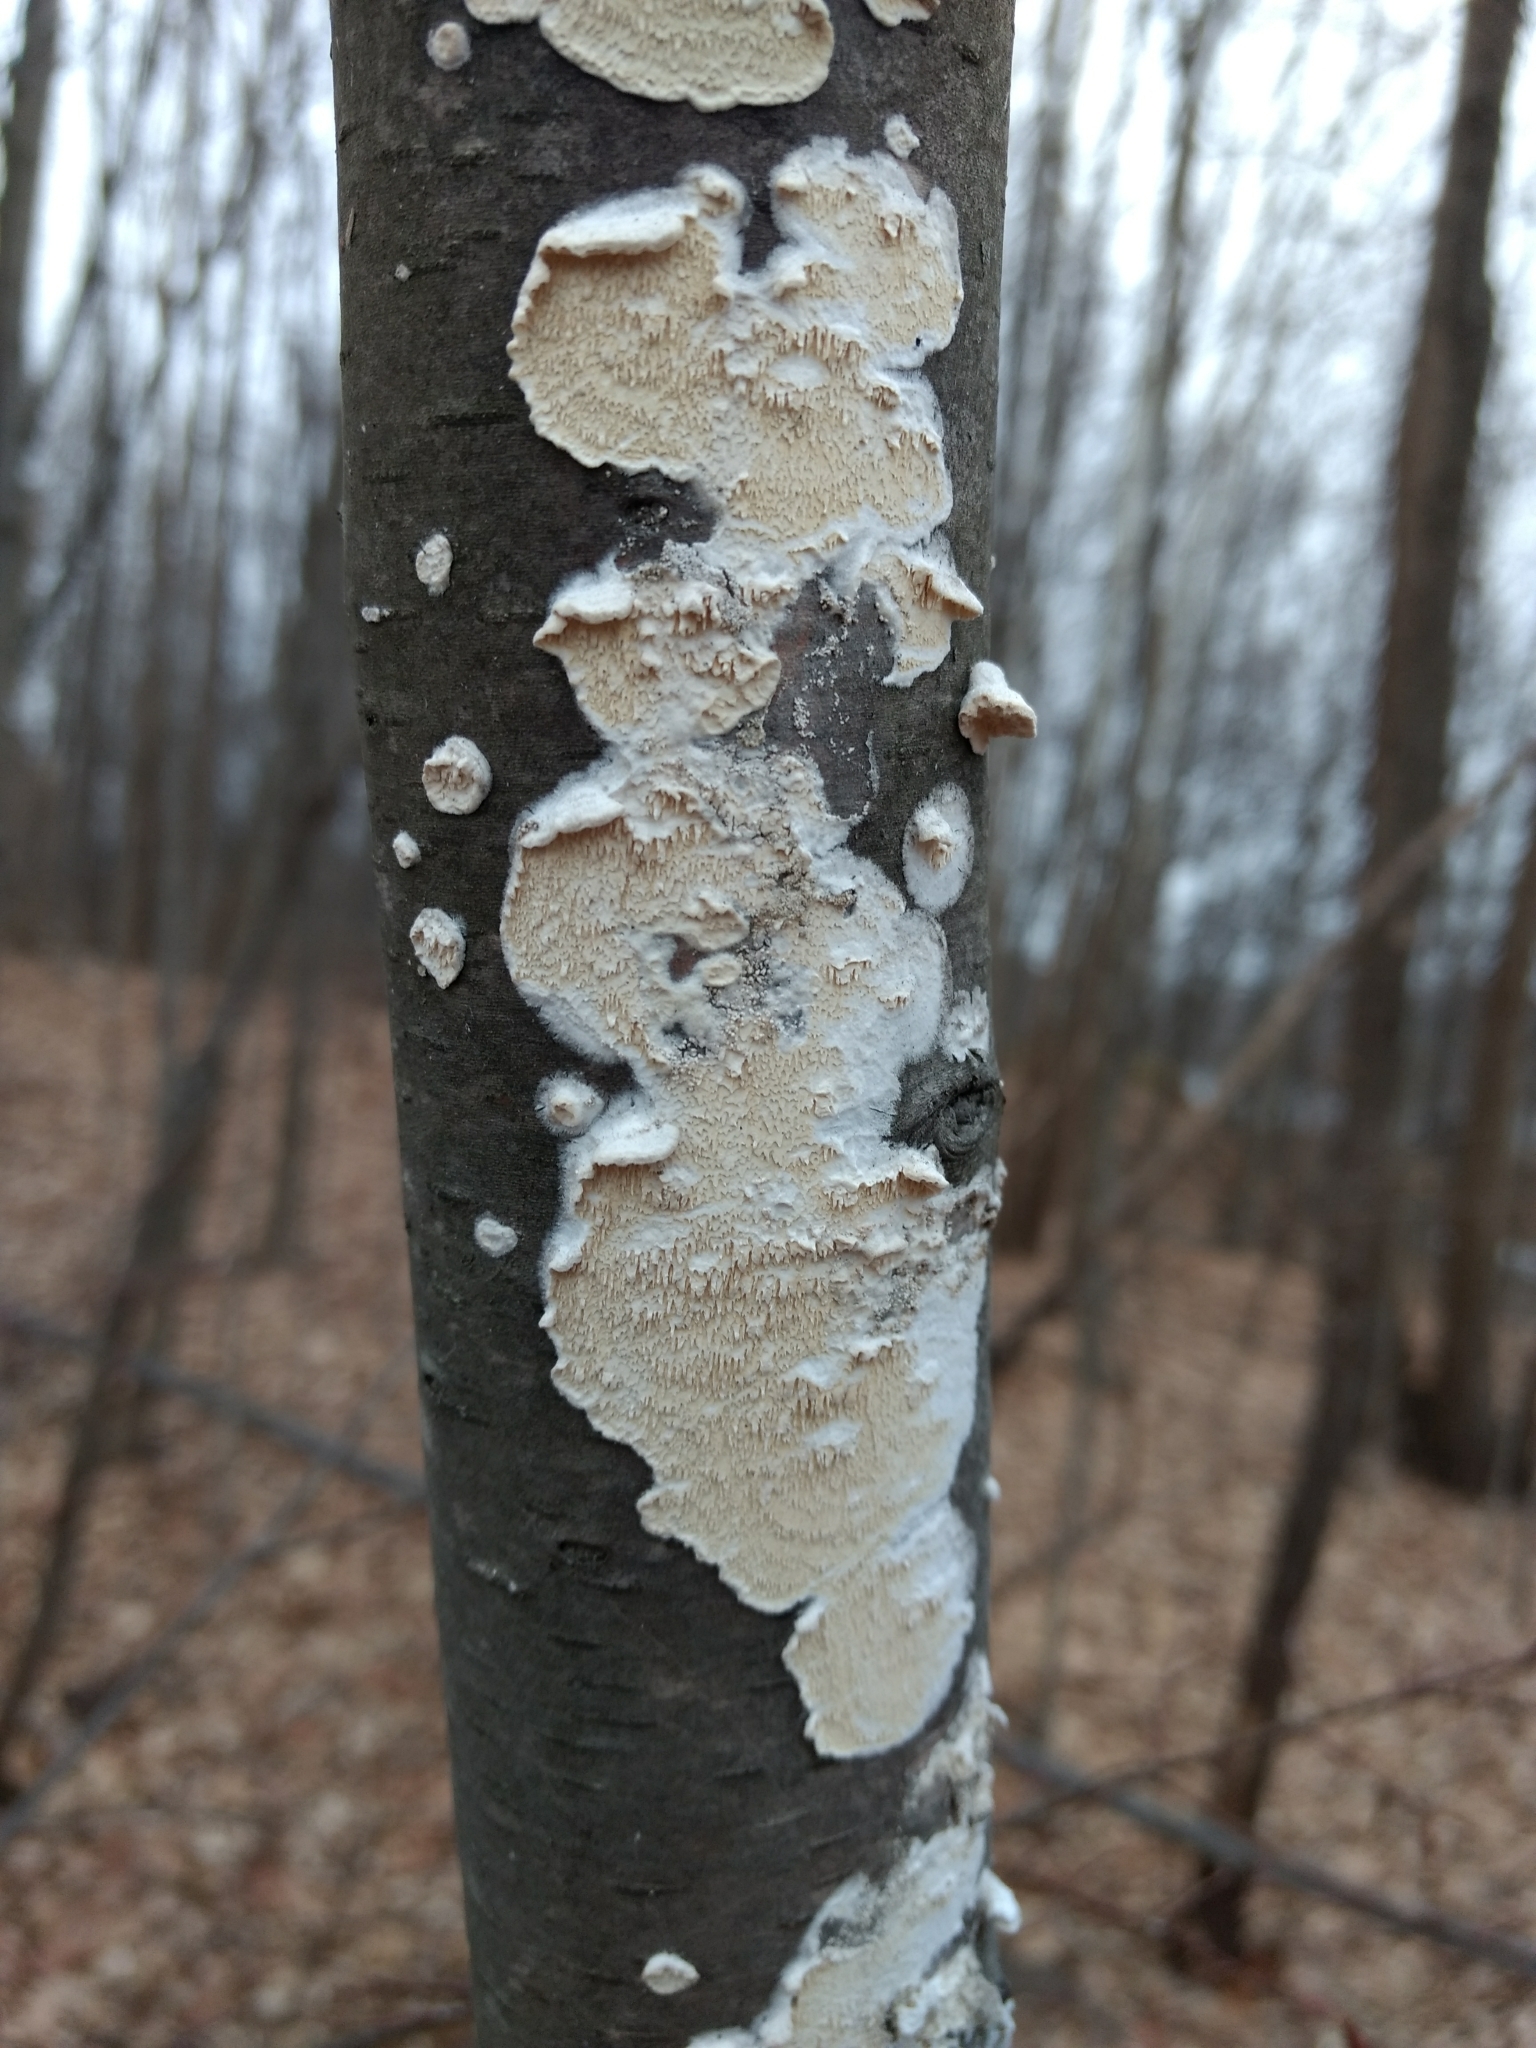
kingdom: Fungi
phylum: Basidiomycota
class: Agaricomycetes
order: Polyporales
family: Irpicaceae
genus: Irpex
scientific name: Irpex lacteus
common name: Milk-white toothed polypore
